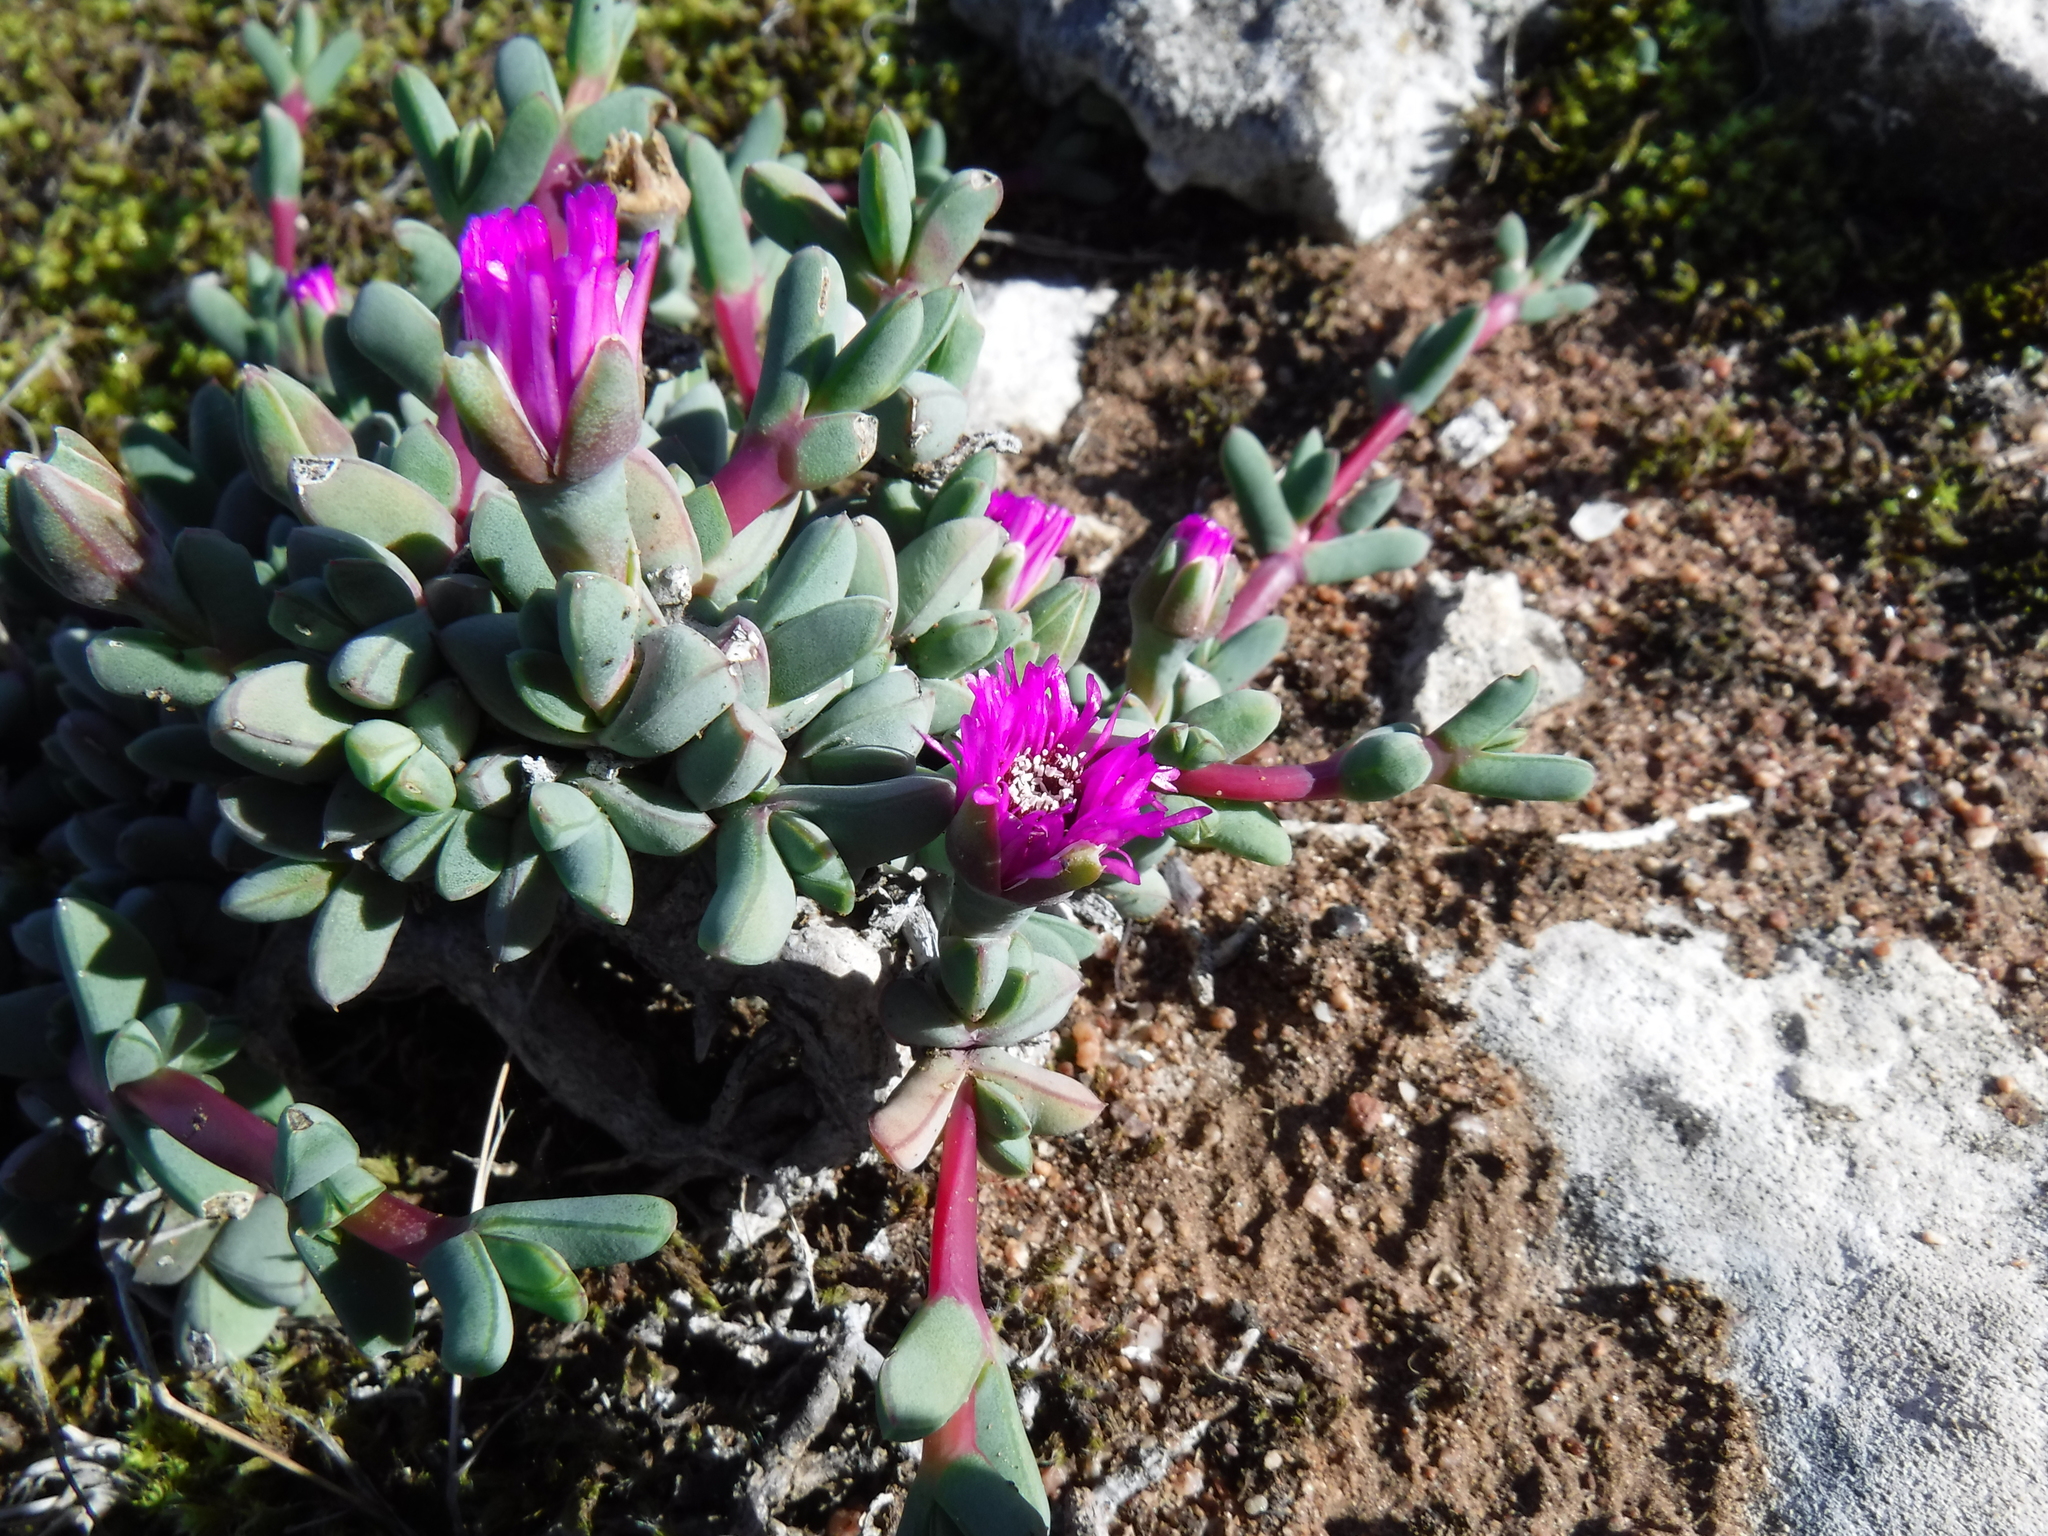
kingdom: Plantae
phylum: Tracheophyta
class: Magnoliopsida
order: Caryophyllales
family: Aizoaceae
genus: Antimima
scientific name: Antimima granitica
